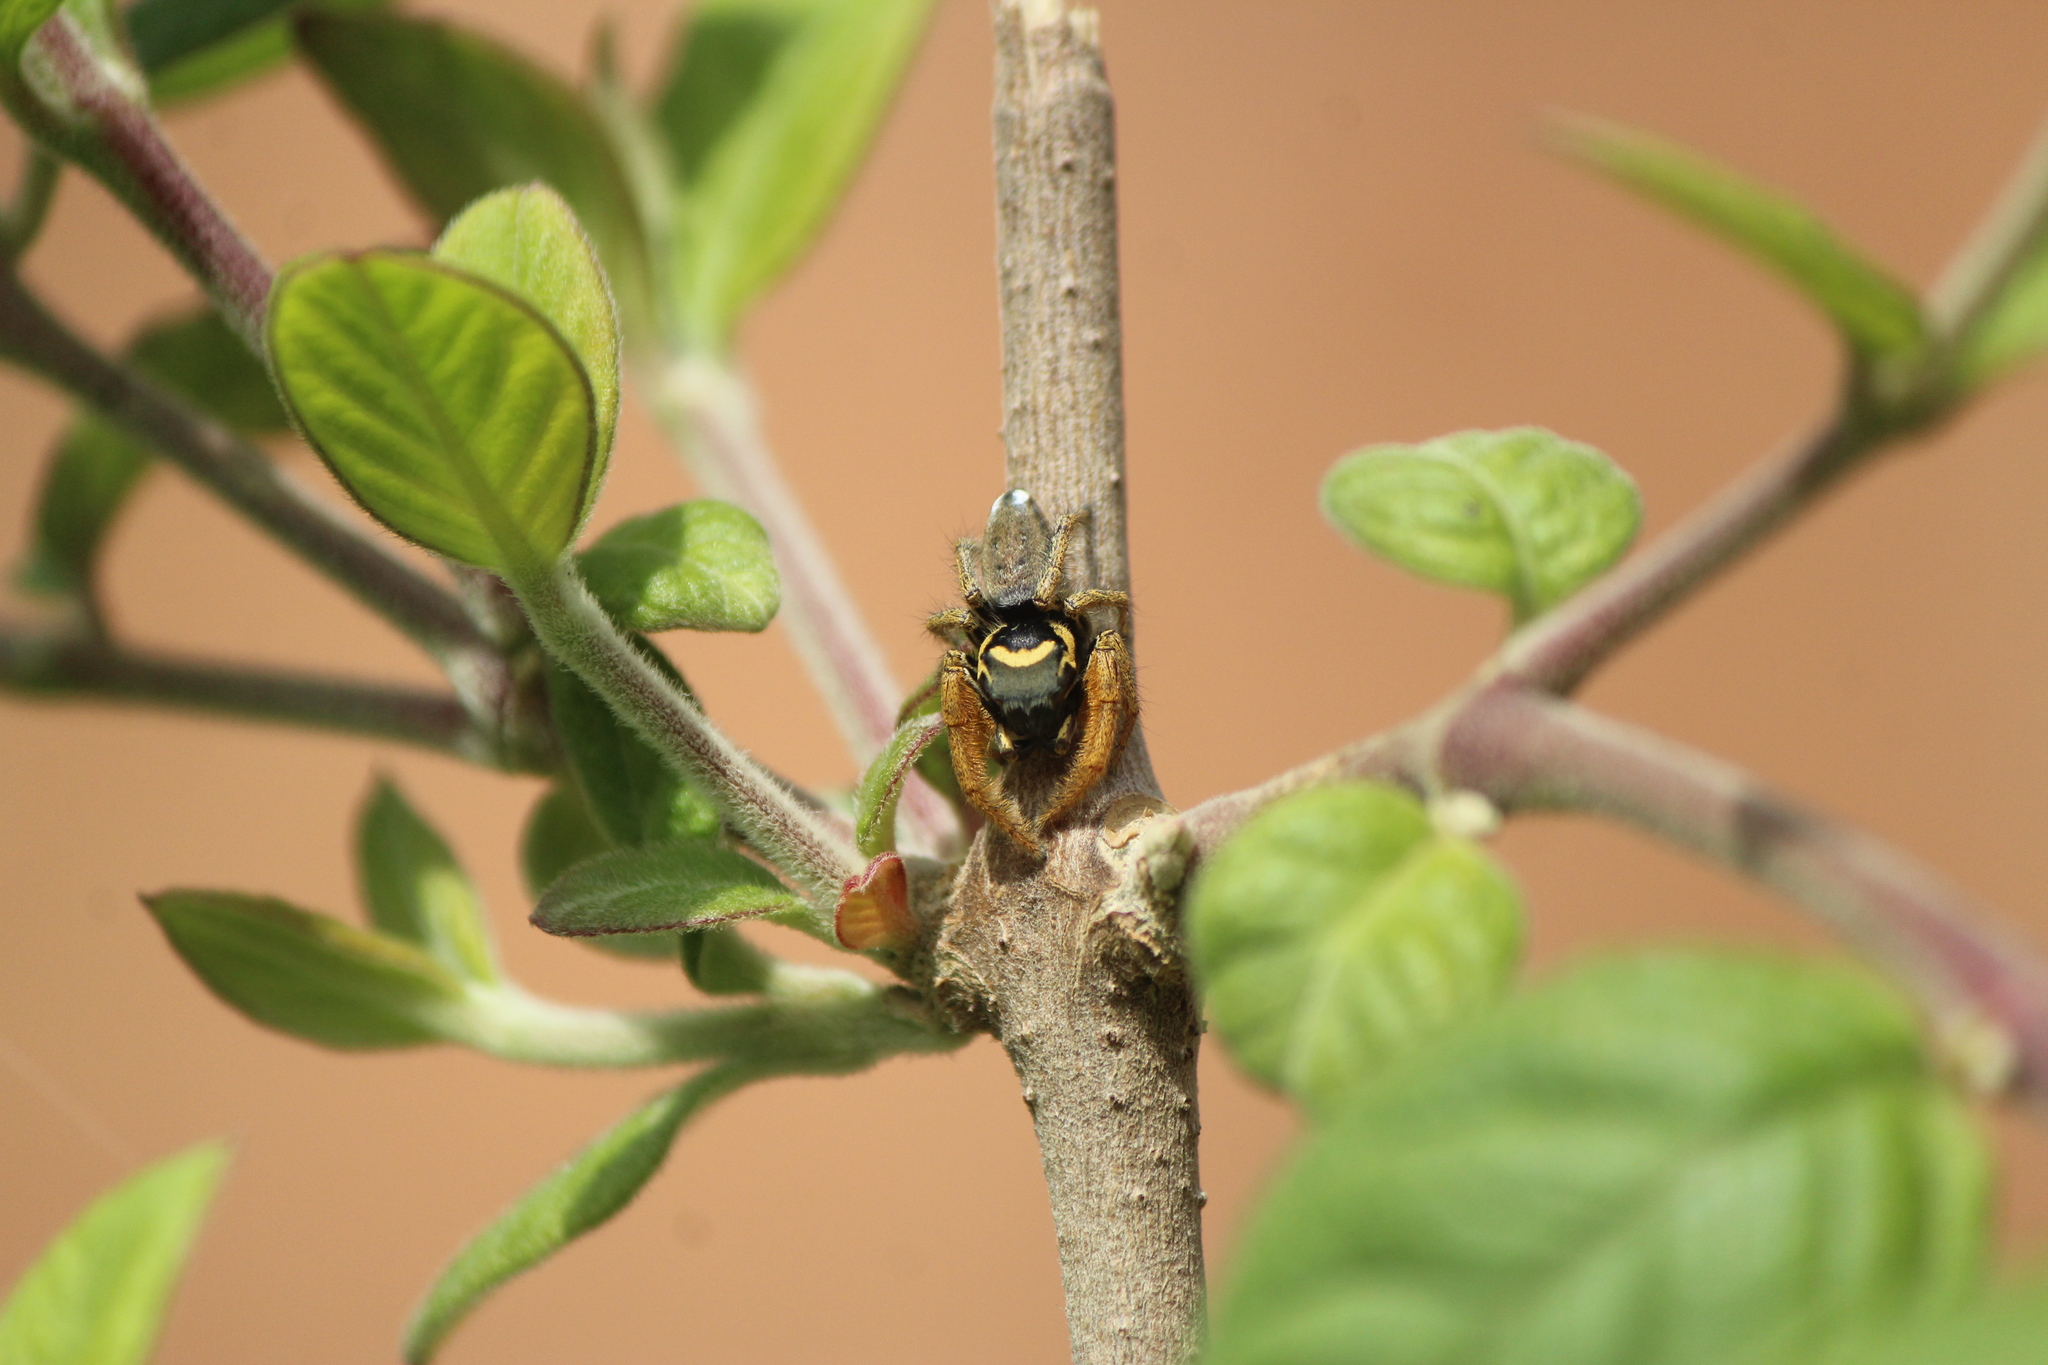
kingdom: Animalia
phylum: Arthropoda
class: Arachnida
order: Araneae
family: Salticidae
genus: Phidippus
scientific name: Phidippus arizonensis
